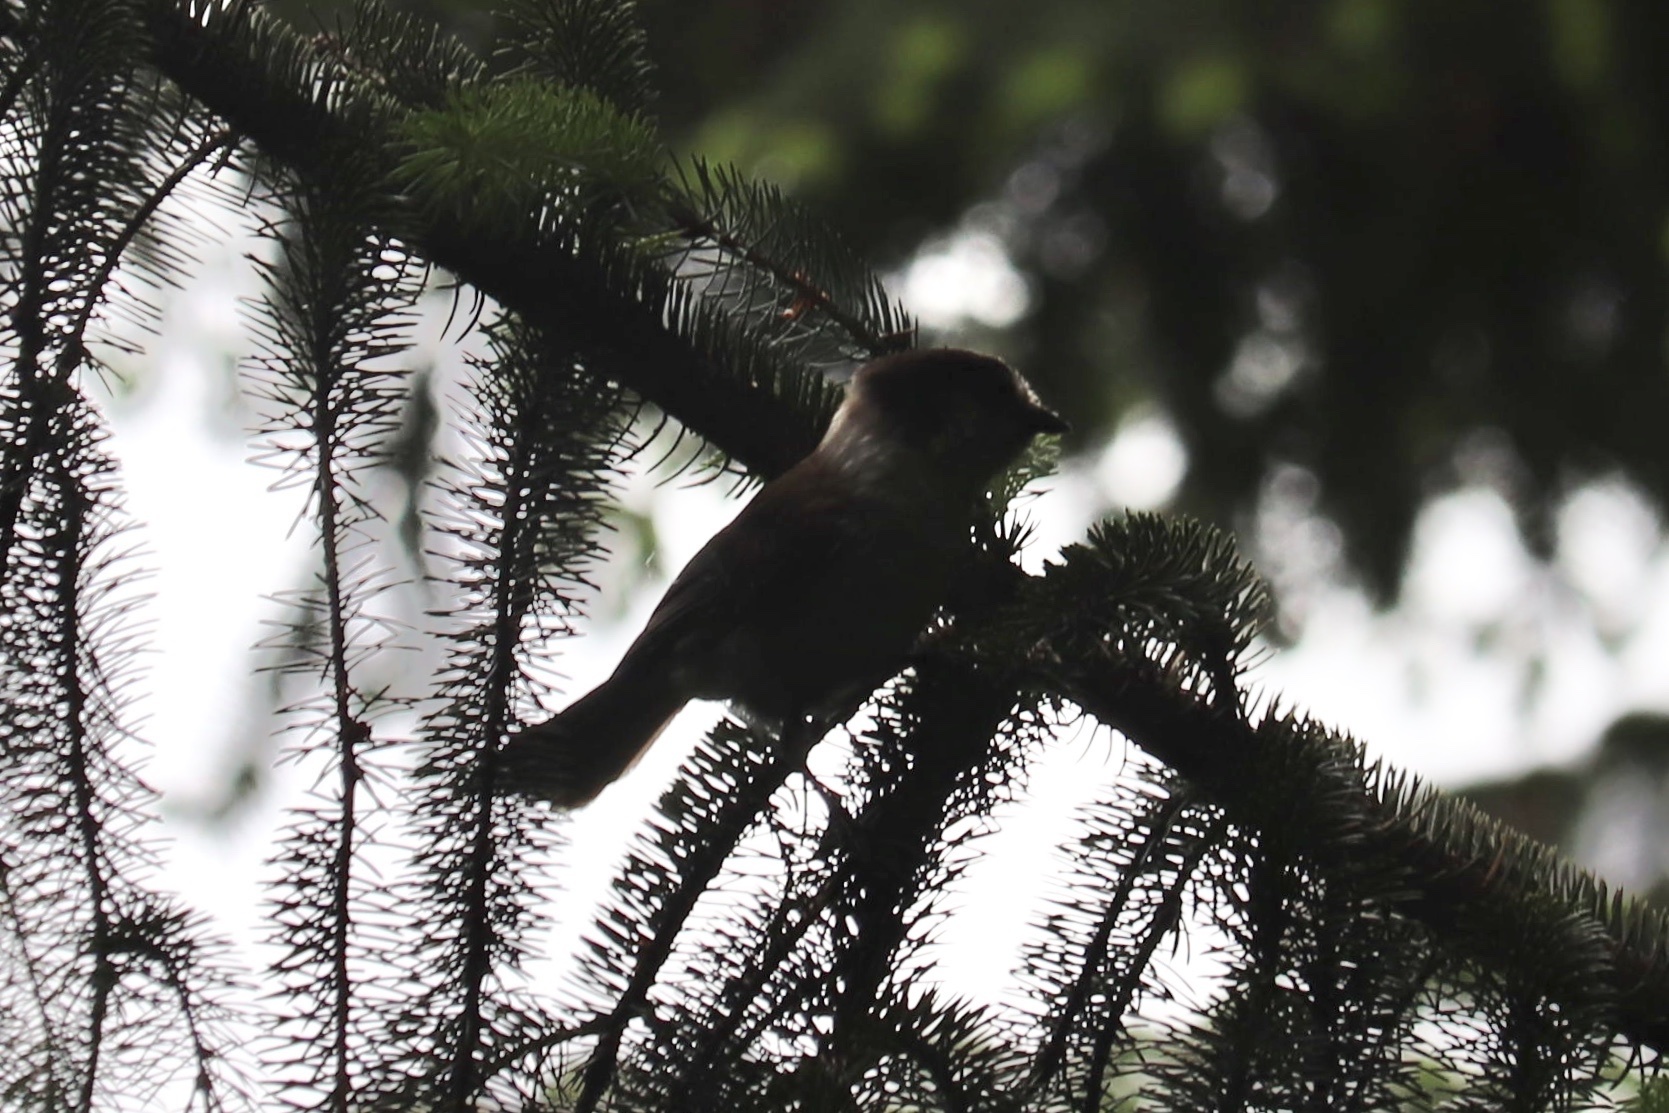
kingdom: Animalia
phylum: Chordata
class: Aves
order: Passeriformes
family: Corvidae
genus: Perisoreus
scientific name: Perisoreus canadensis
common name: Gray jay
